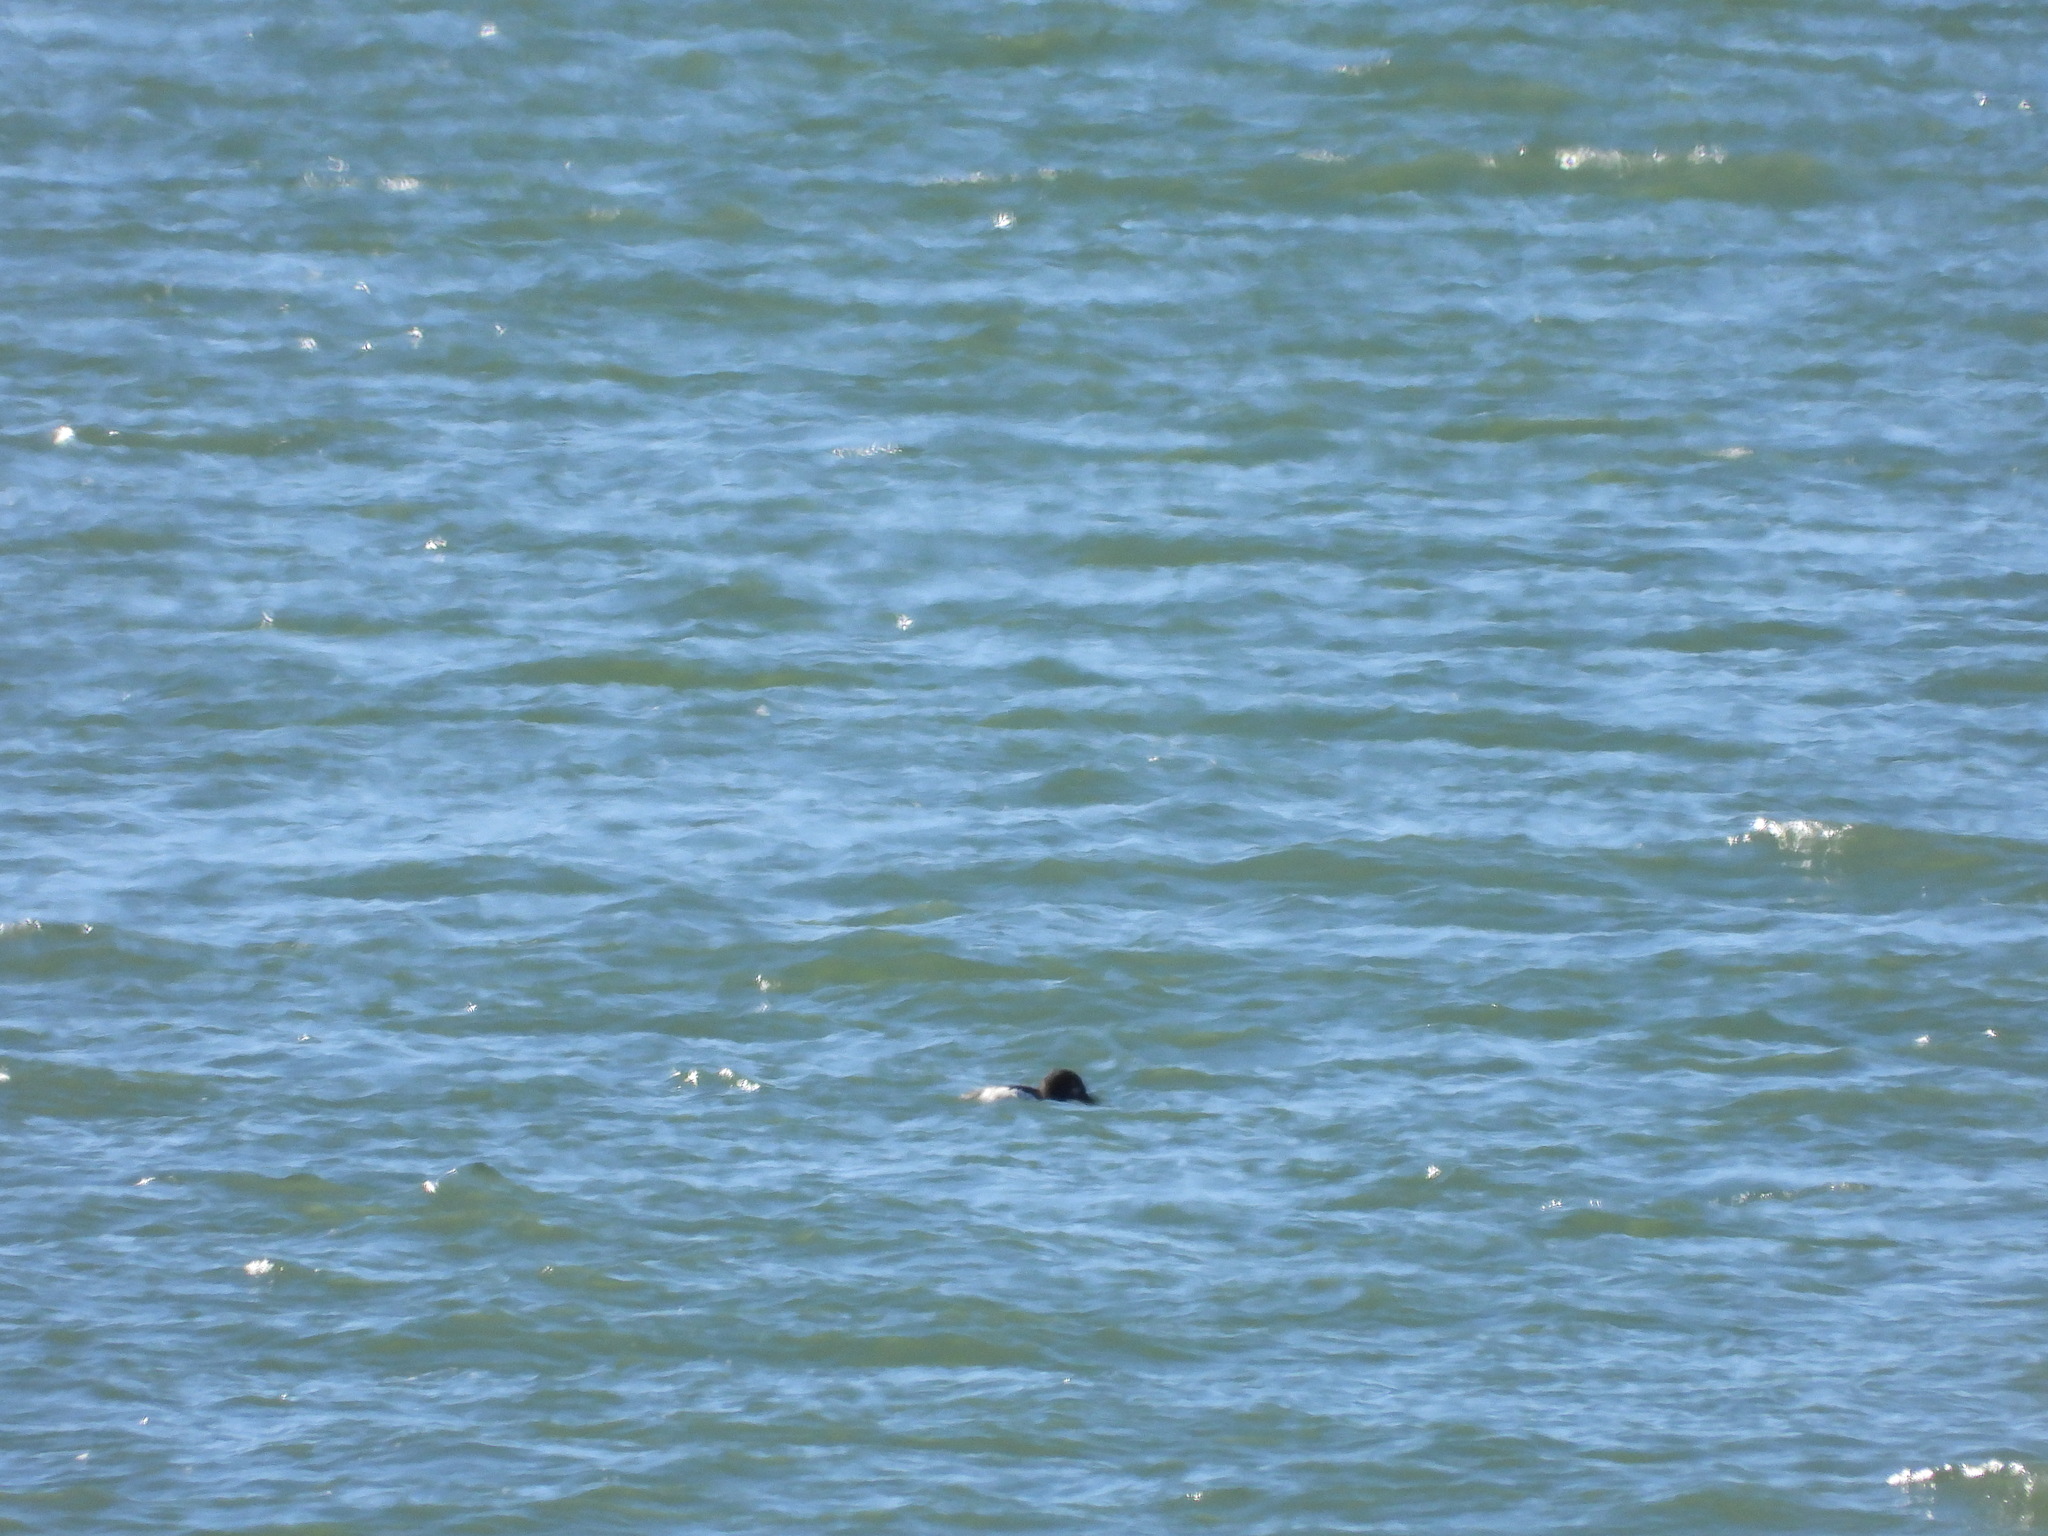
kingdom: Animalia
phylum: Chordata
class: Aves
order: Anseriformes
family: Anatidae
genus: Bucephala
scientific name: Bucephala clangula
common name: Common goldeneye
